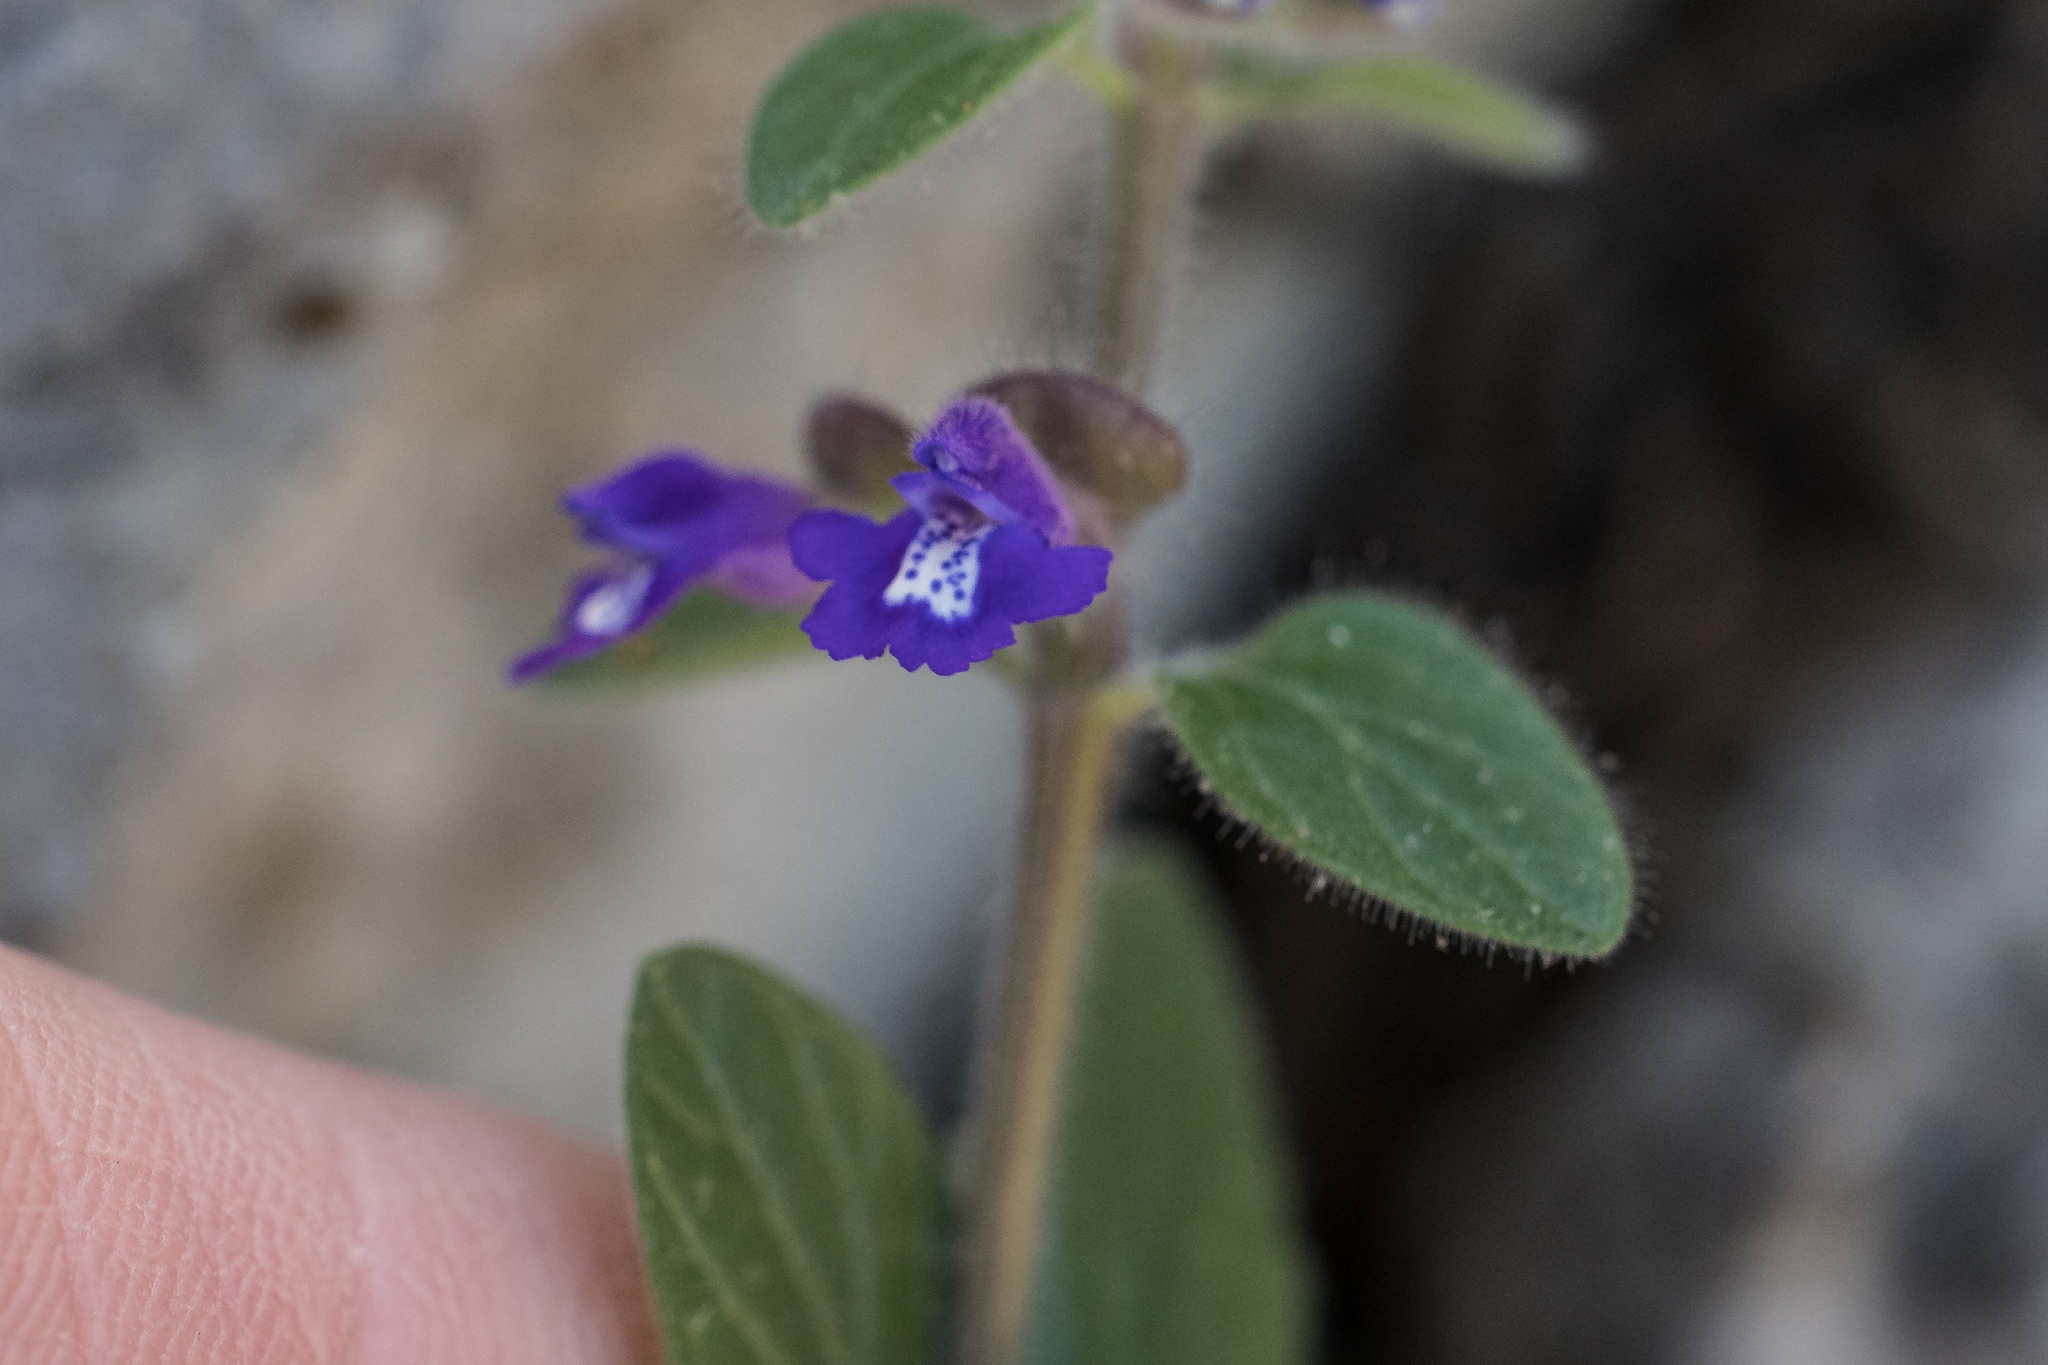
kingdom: Plantae
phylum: Tracheophyta
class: Magnoliopsida
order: Lamiales
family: Lamiaceae
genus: Scutellaria
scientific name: Scutellaria drummondii
